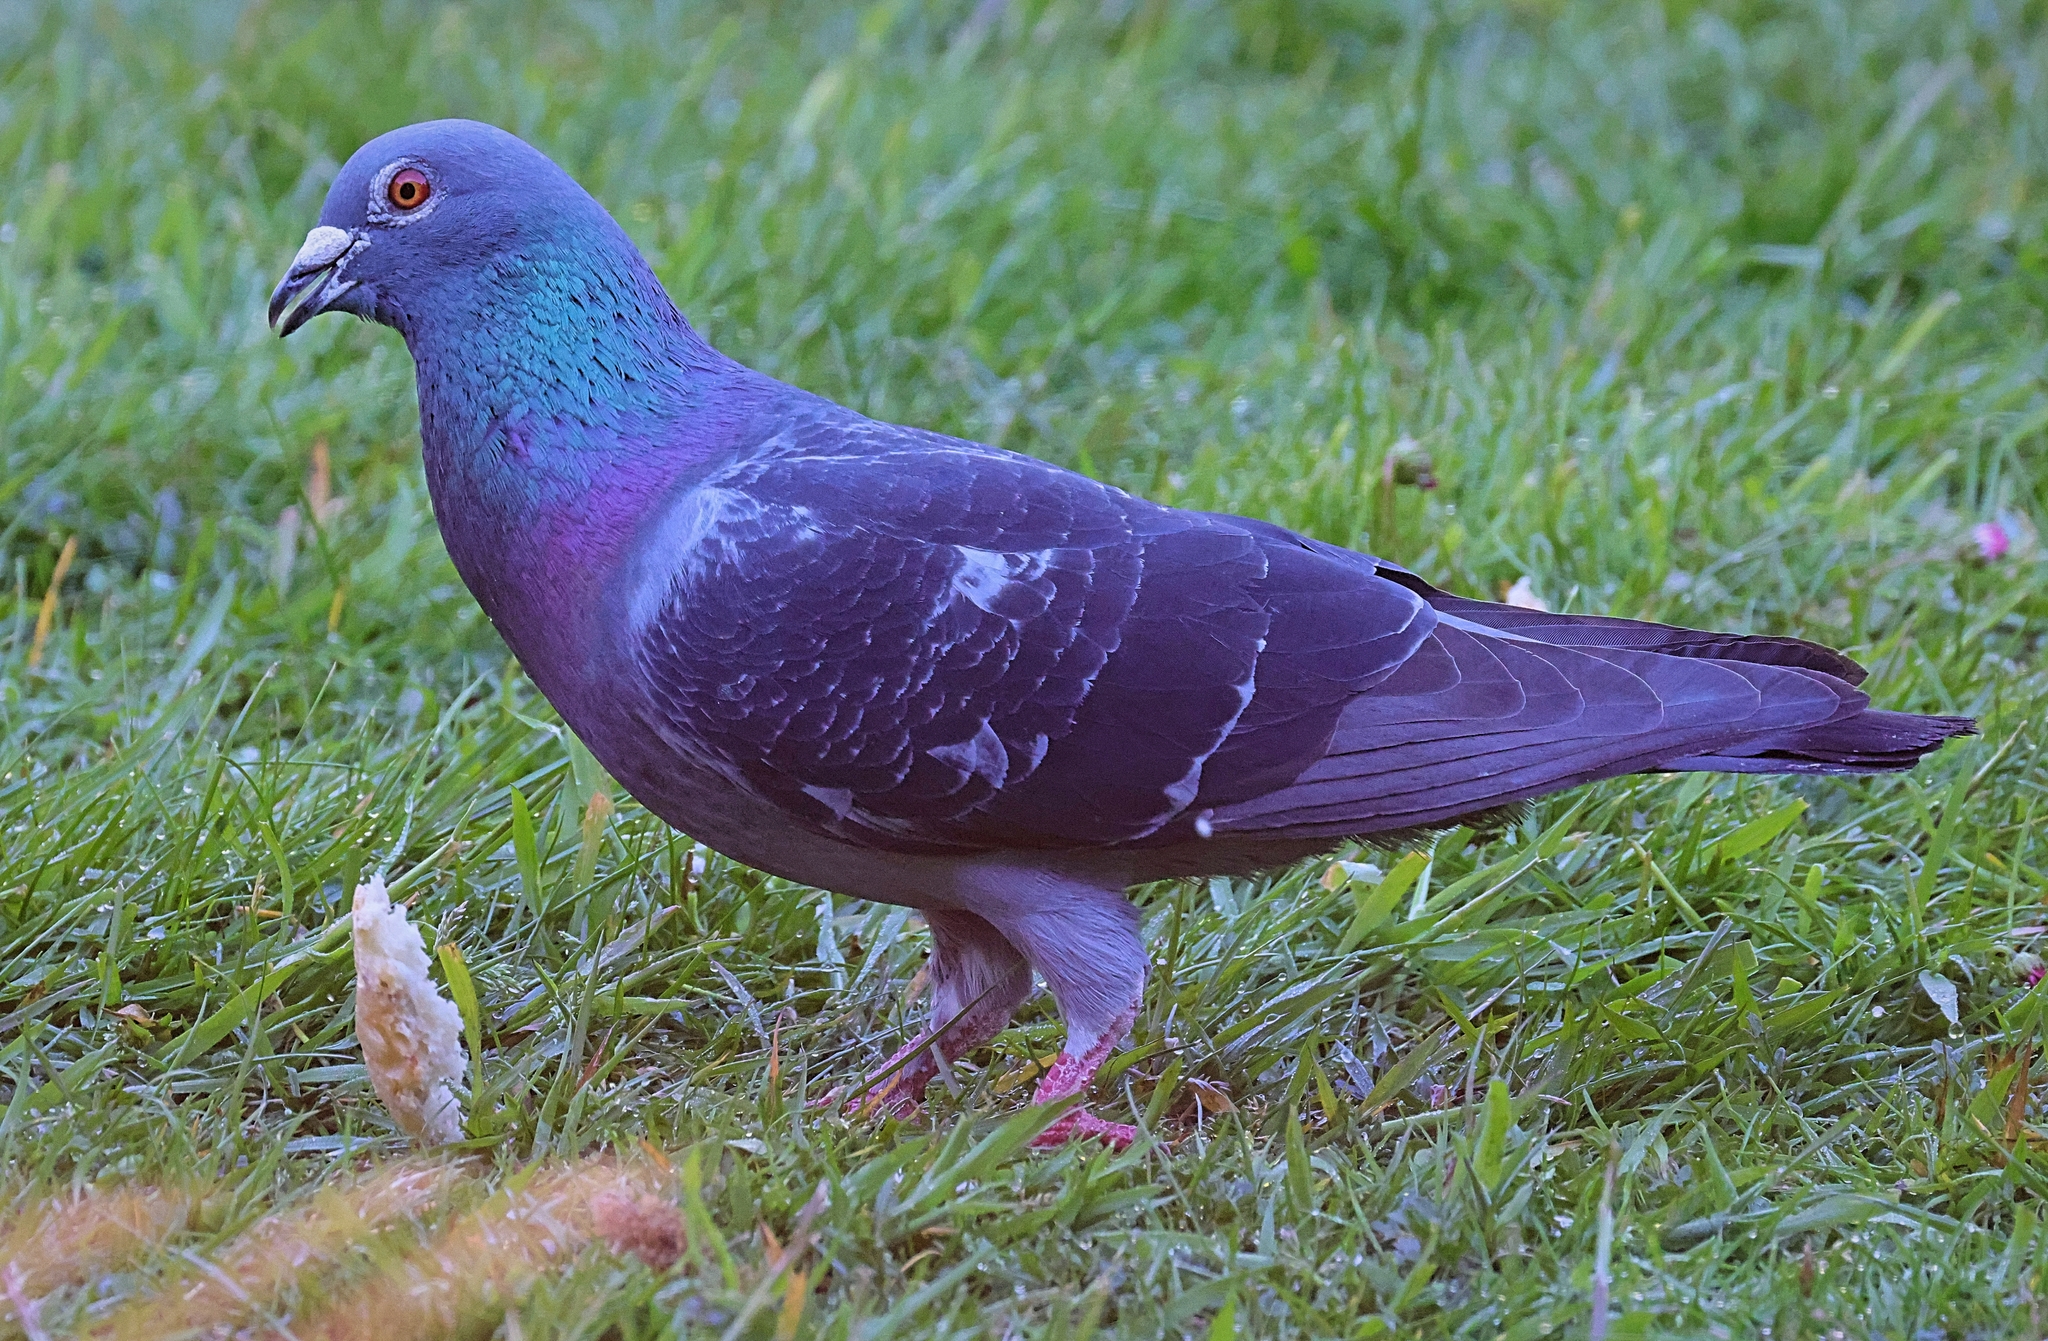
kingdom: Animalia
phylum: Chordata
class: Aves
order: Columbiformes
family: Columbidae
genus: Columba
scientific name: Columba livia
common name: Rock pigeon
